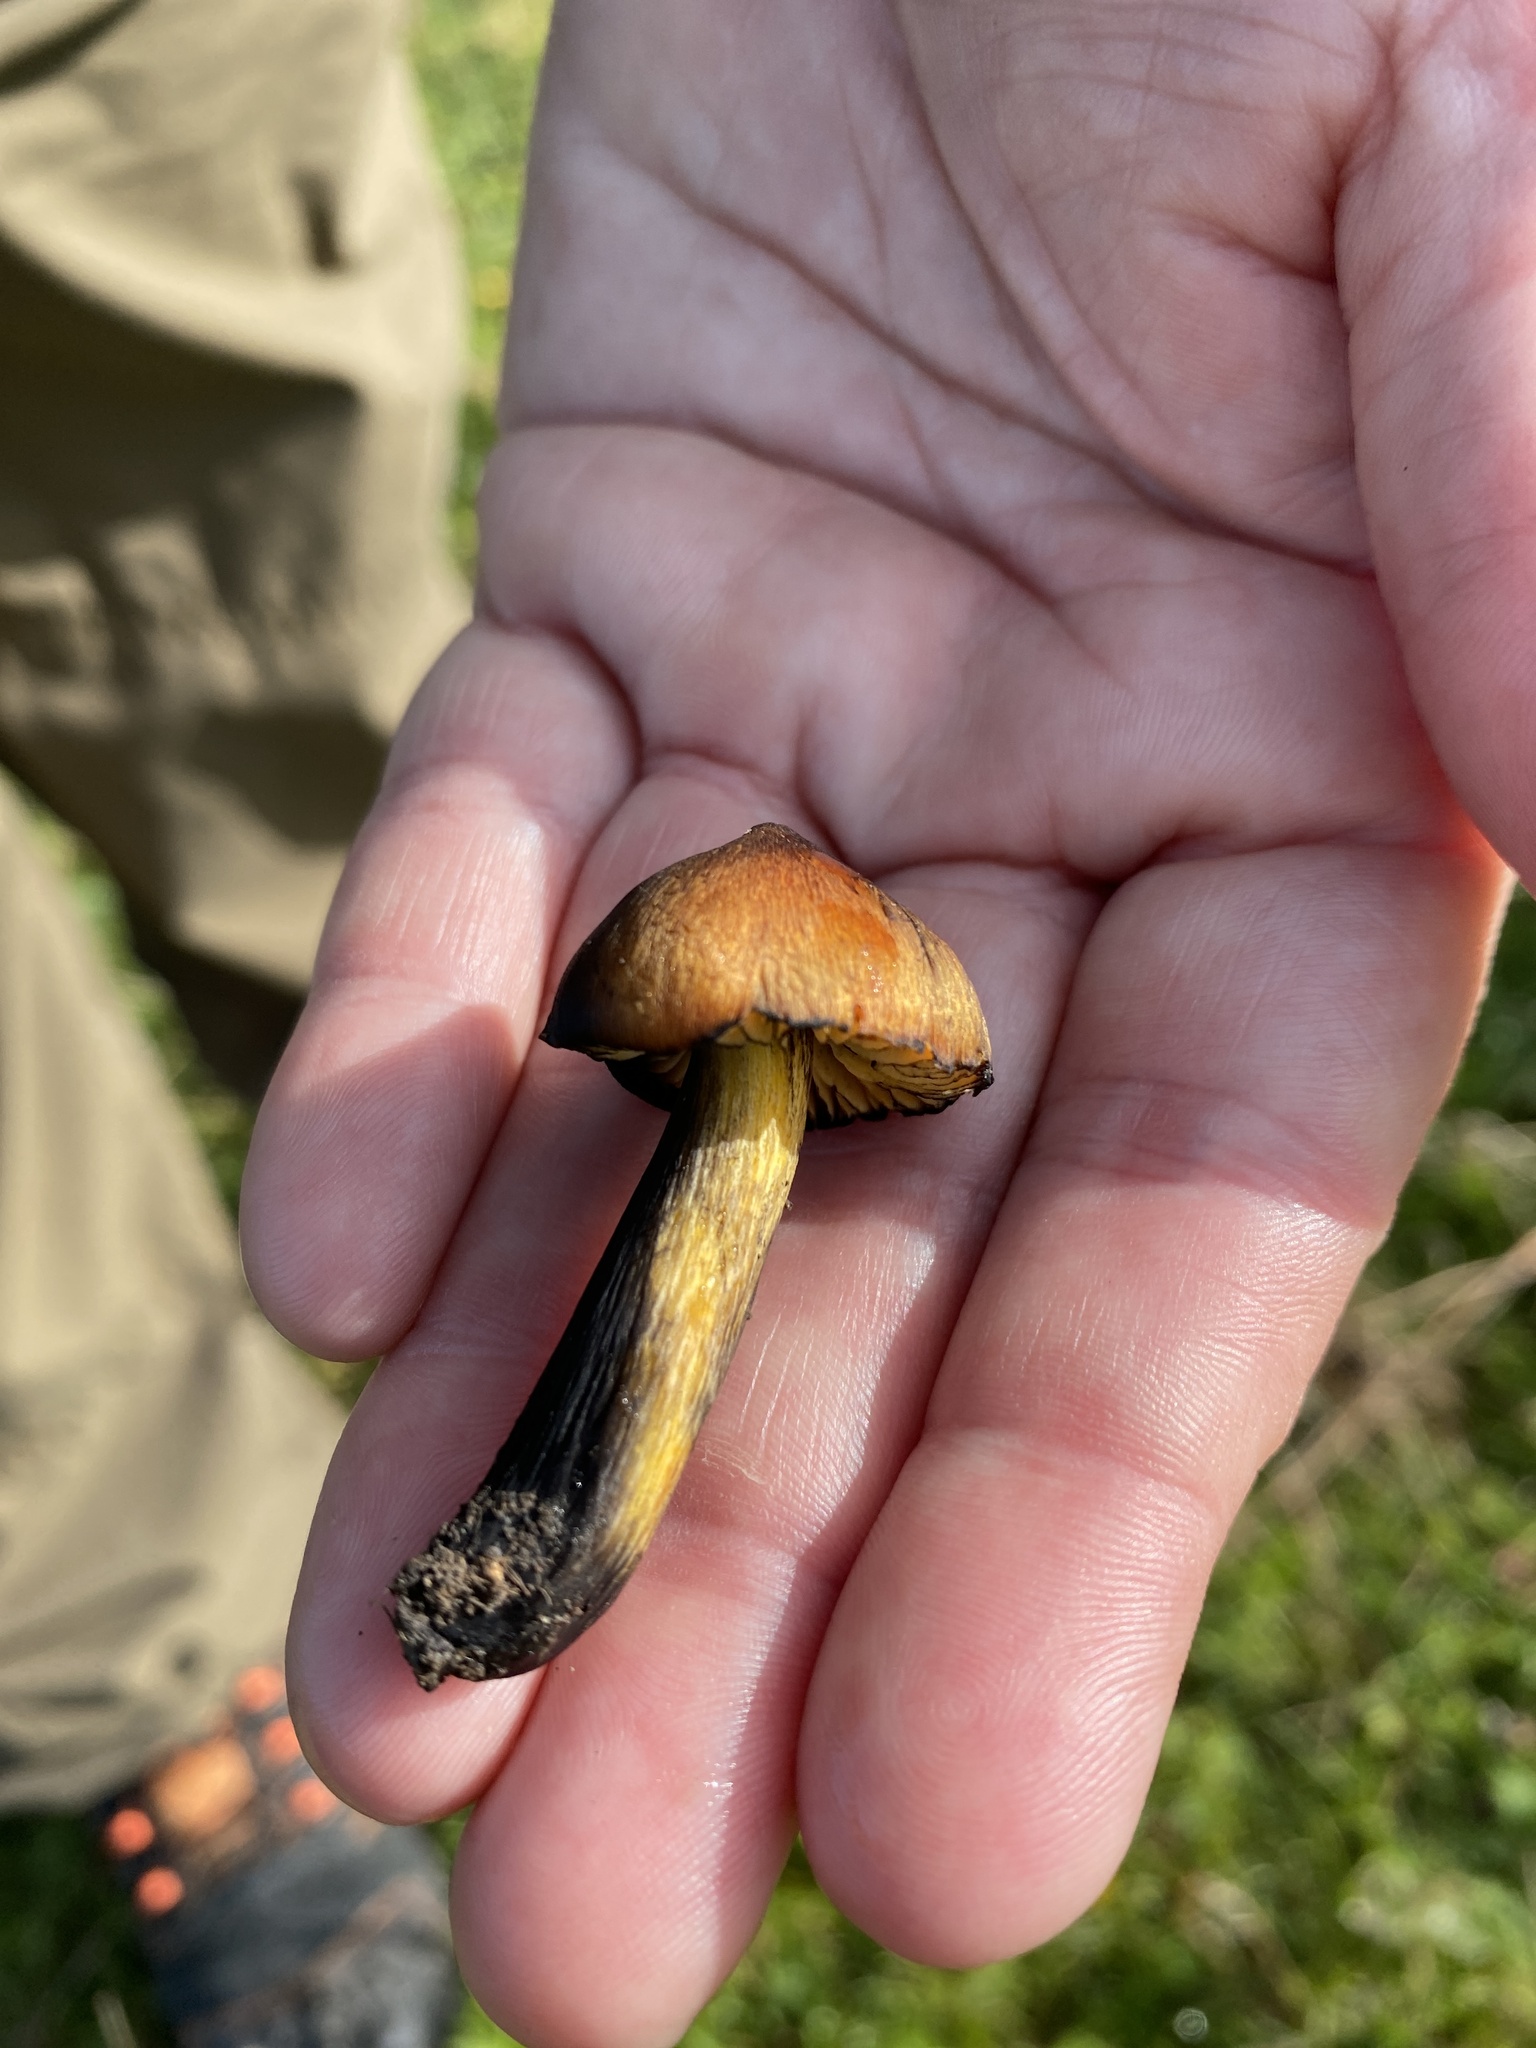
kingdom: Fungi
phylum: Basidiomycota
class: Agaricomycetes
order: Agaricales
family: Hygrophoraceae
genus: Hygrocybe
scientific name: Hygrocybe conica
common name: Blackening wax-cap
